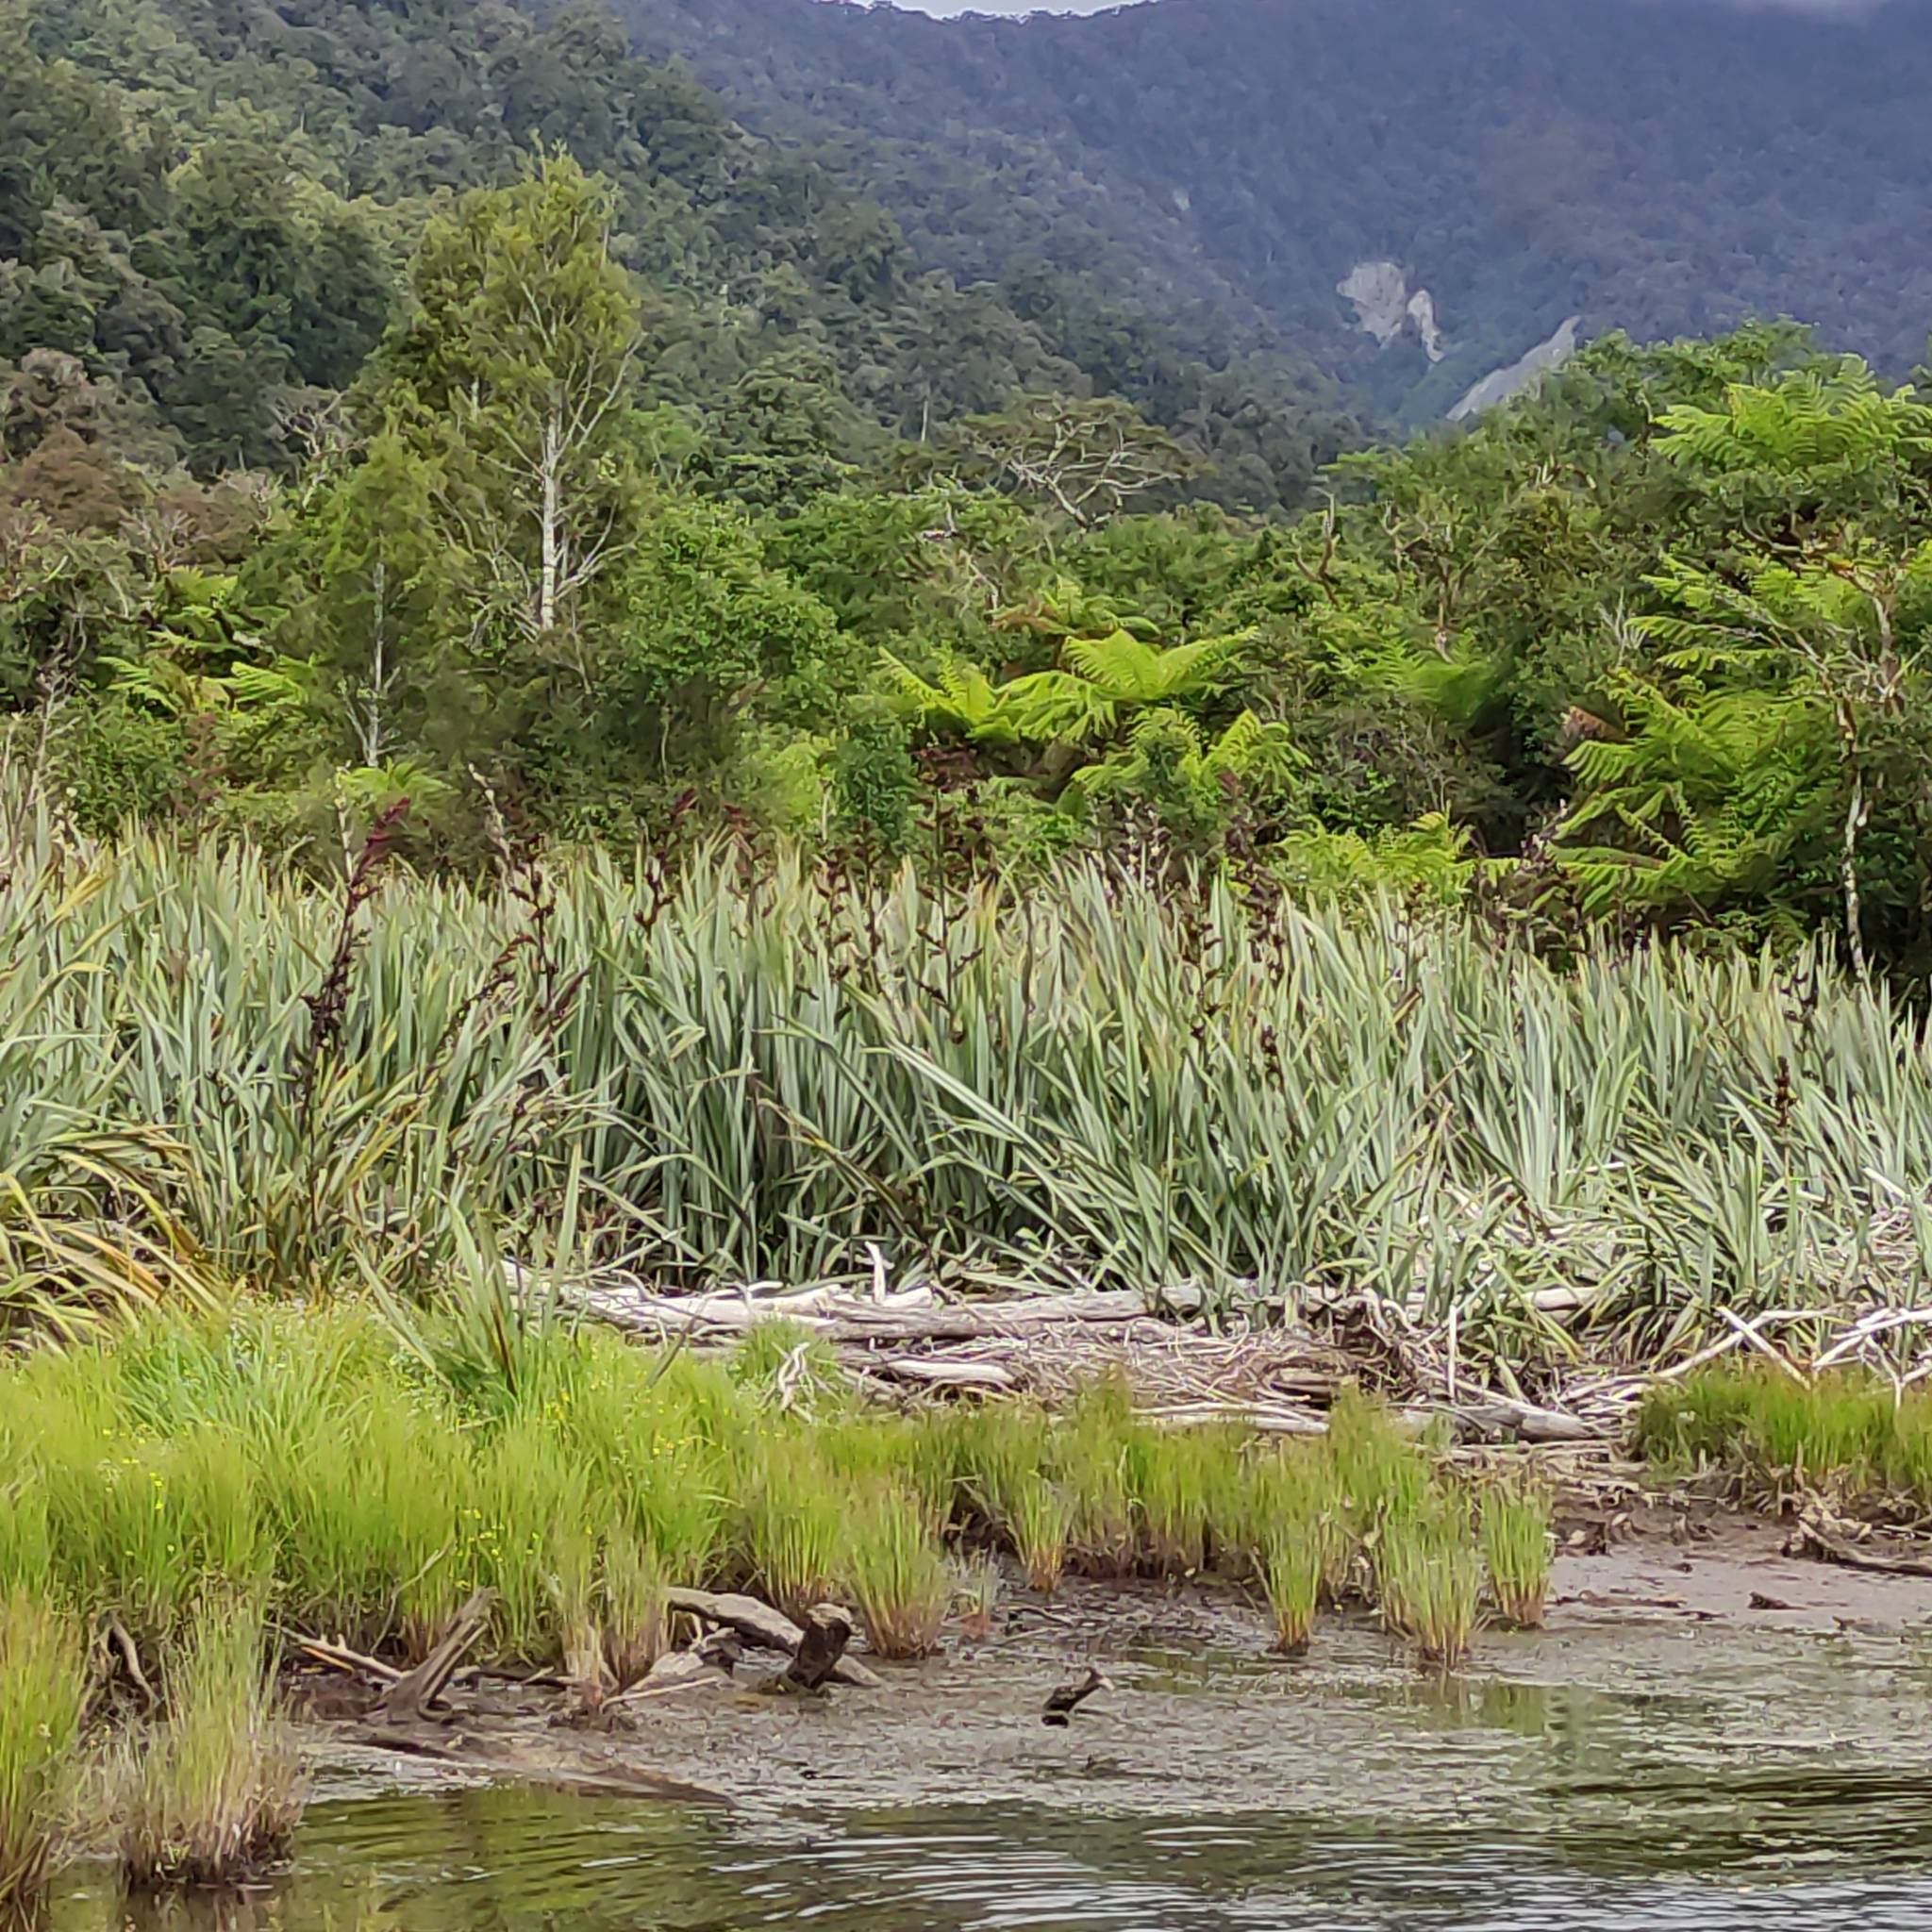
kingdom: Plantae
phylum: Tracheophyta
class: Liliopsida
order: Asparagales
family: Asphodelaceae
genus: Phormium
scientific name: Phormium tenax
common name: New zealand flax
